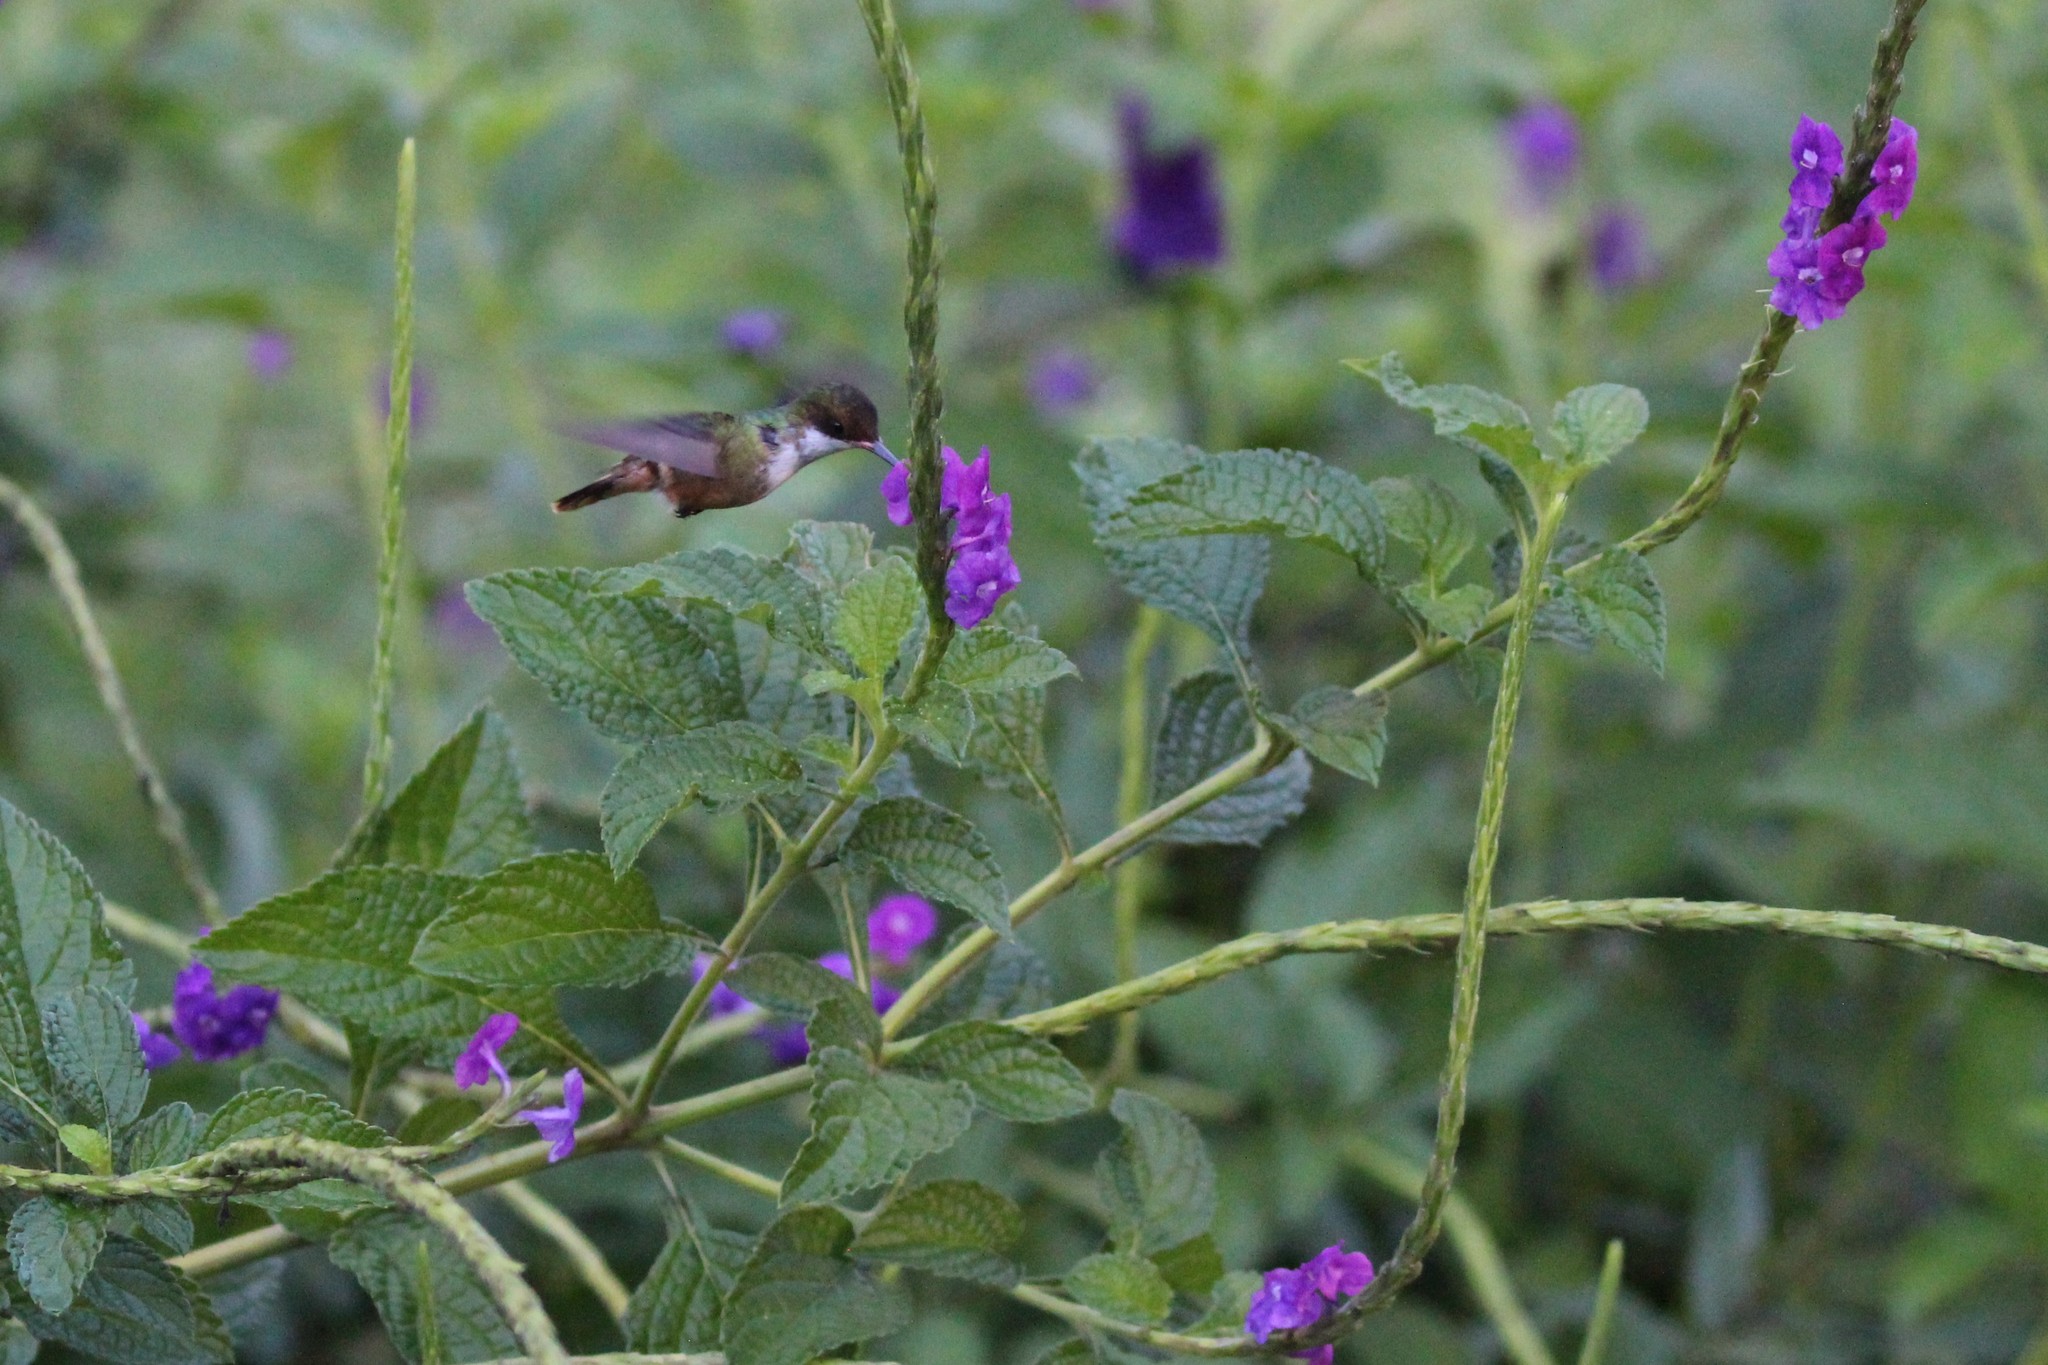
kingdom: Animalia
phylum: Chordata
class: Aves
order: Apodiformes
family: Trochilidae
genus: Lophornis
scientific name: Lophornis adorabilis
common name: White-crested coquette
